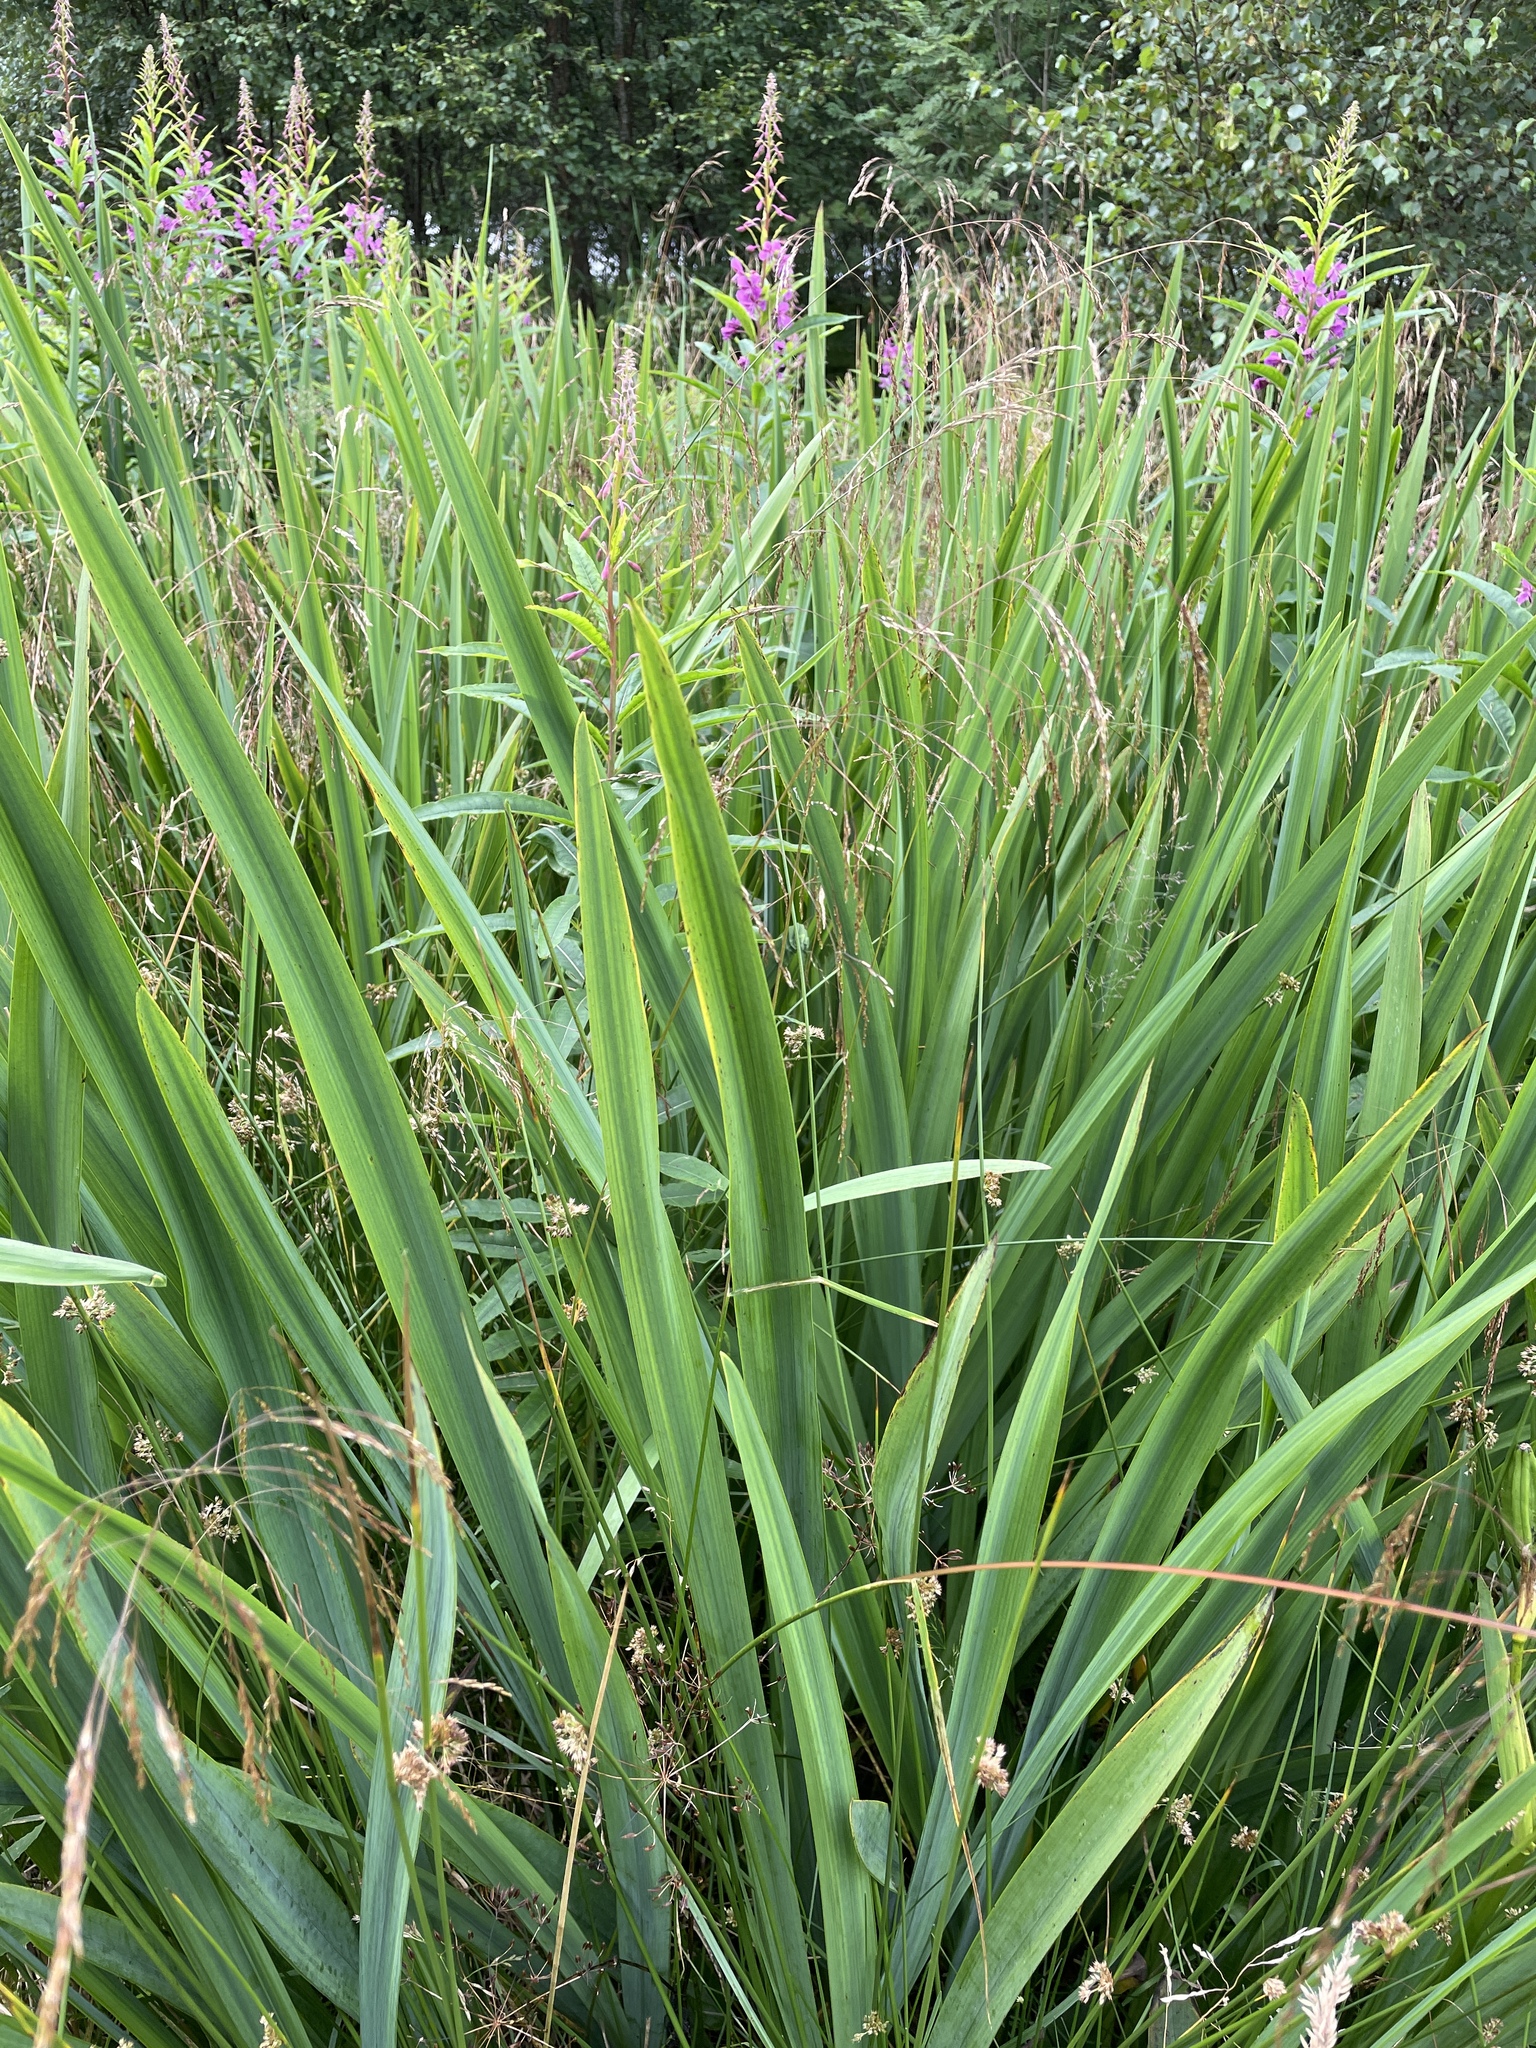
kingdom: Plantae
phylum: Tracheophyta
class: Liliopsida
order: Asparagales
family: Iridaceae
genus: Iris
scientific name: Iris pseudacorus
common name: Yellow flag
